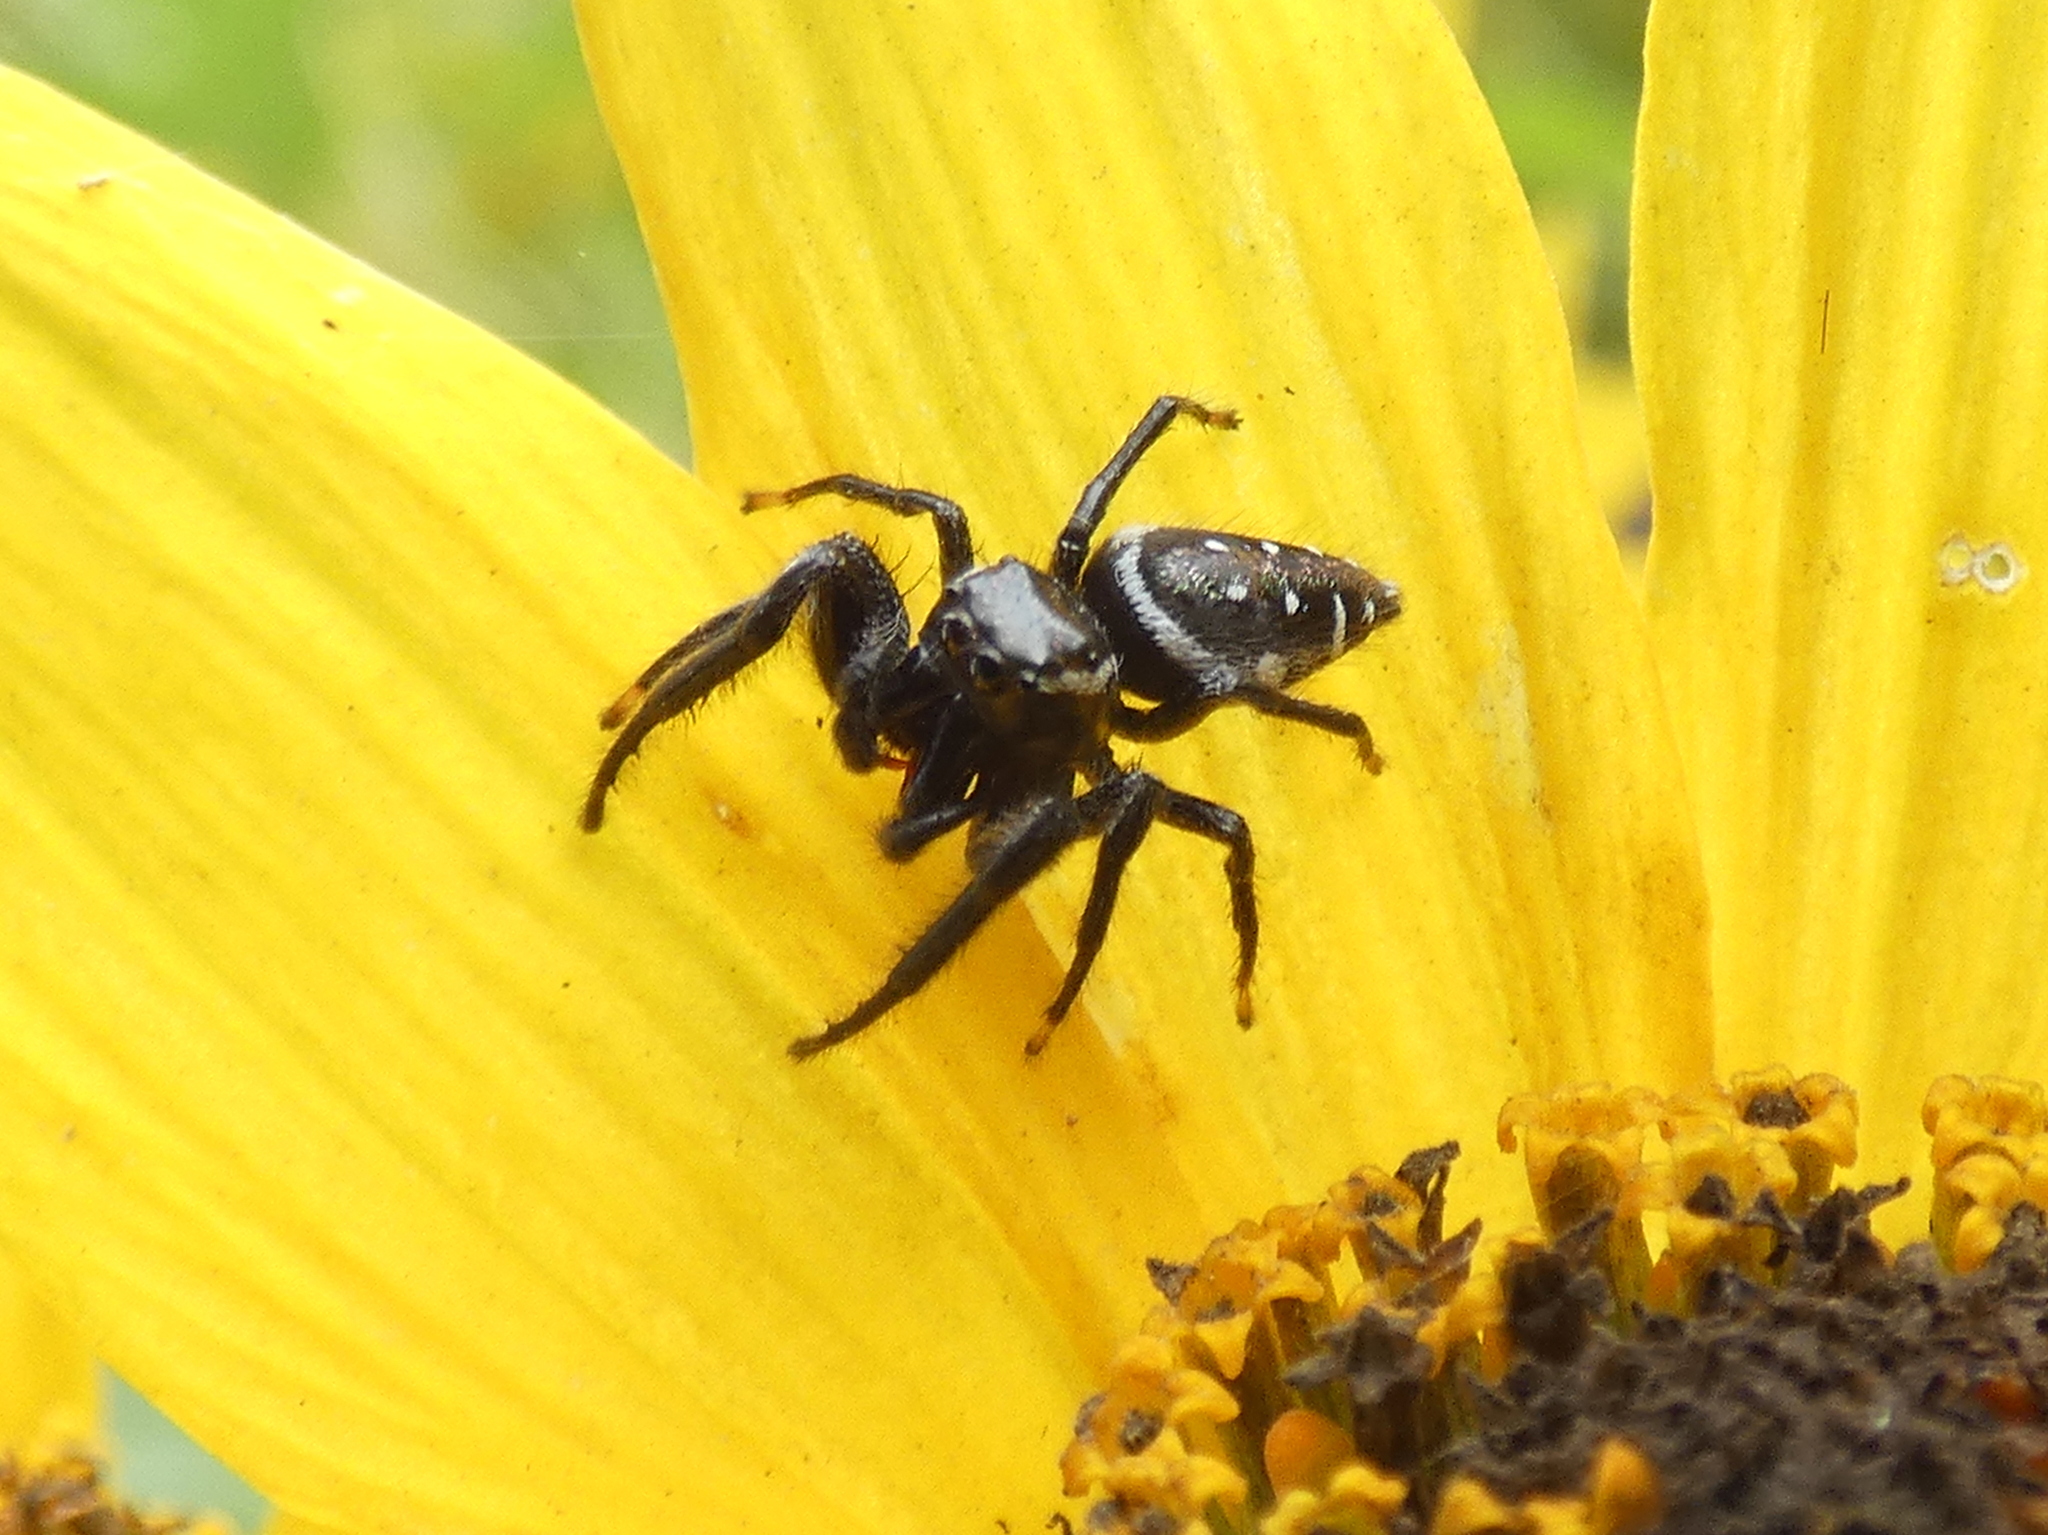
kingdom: Animalia
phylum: Arthropoda
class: Arachnida
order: Araneae
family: Salticidae
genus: Paraphidippus
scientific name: Paraphidippus aurantius
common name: Jumping spiders
